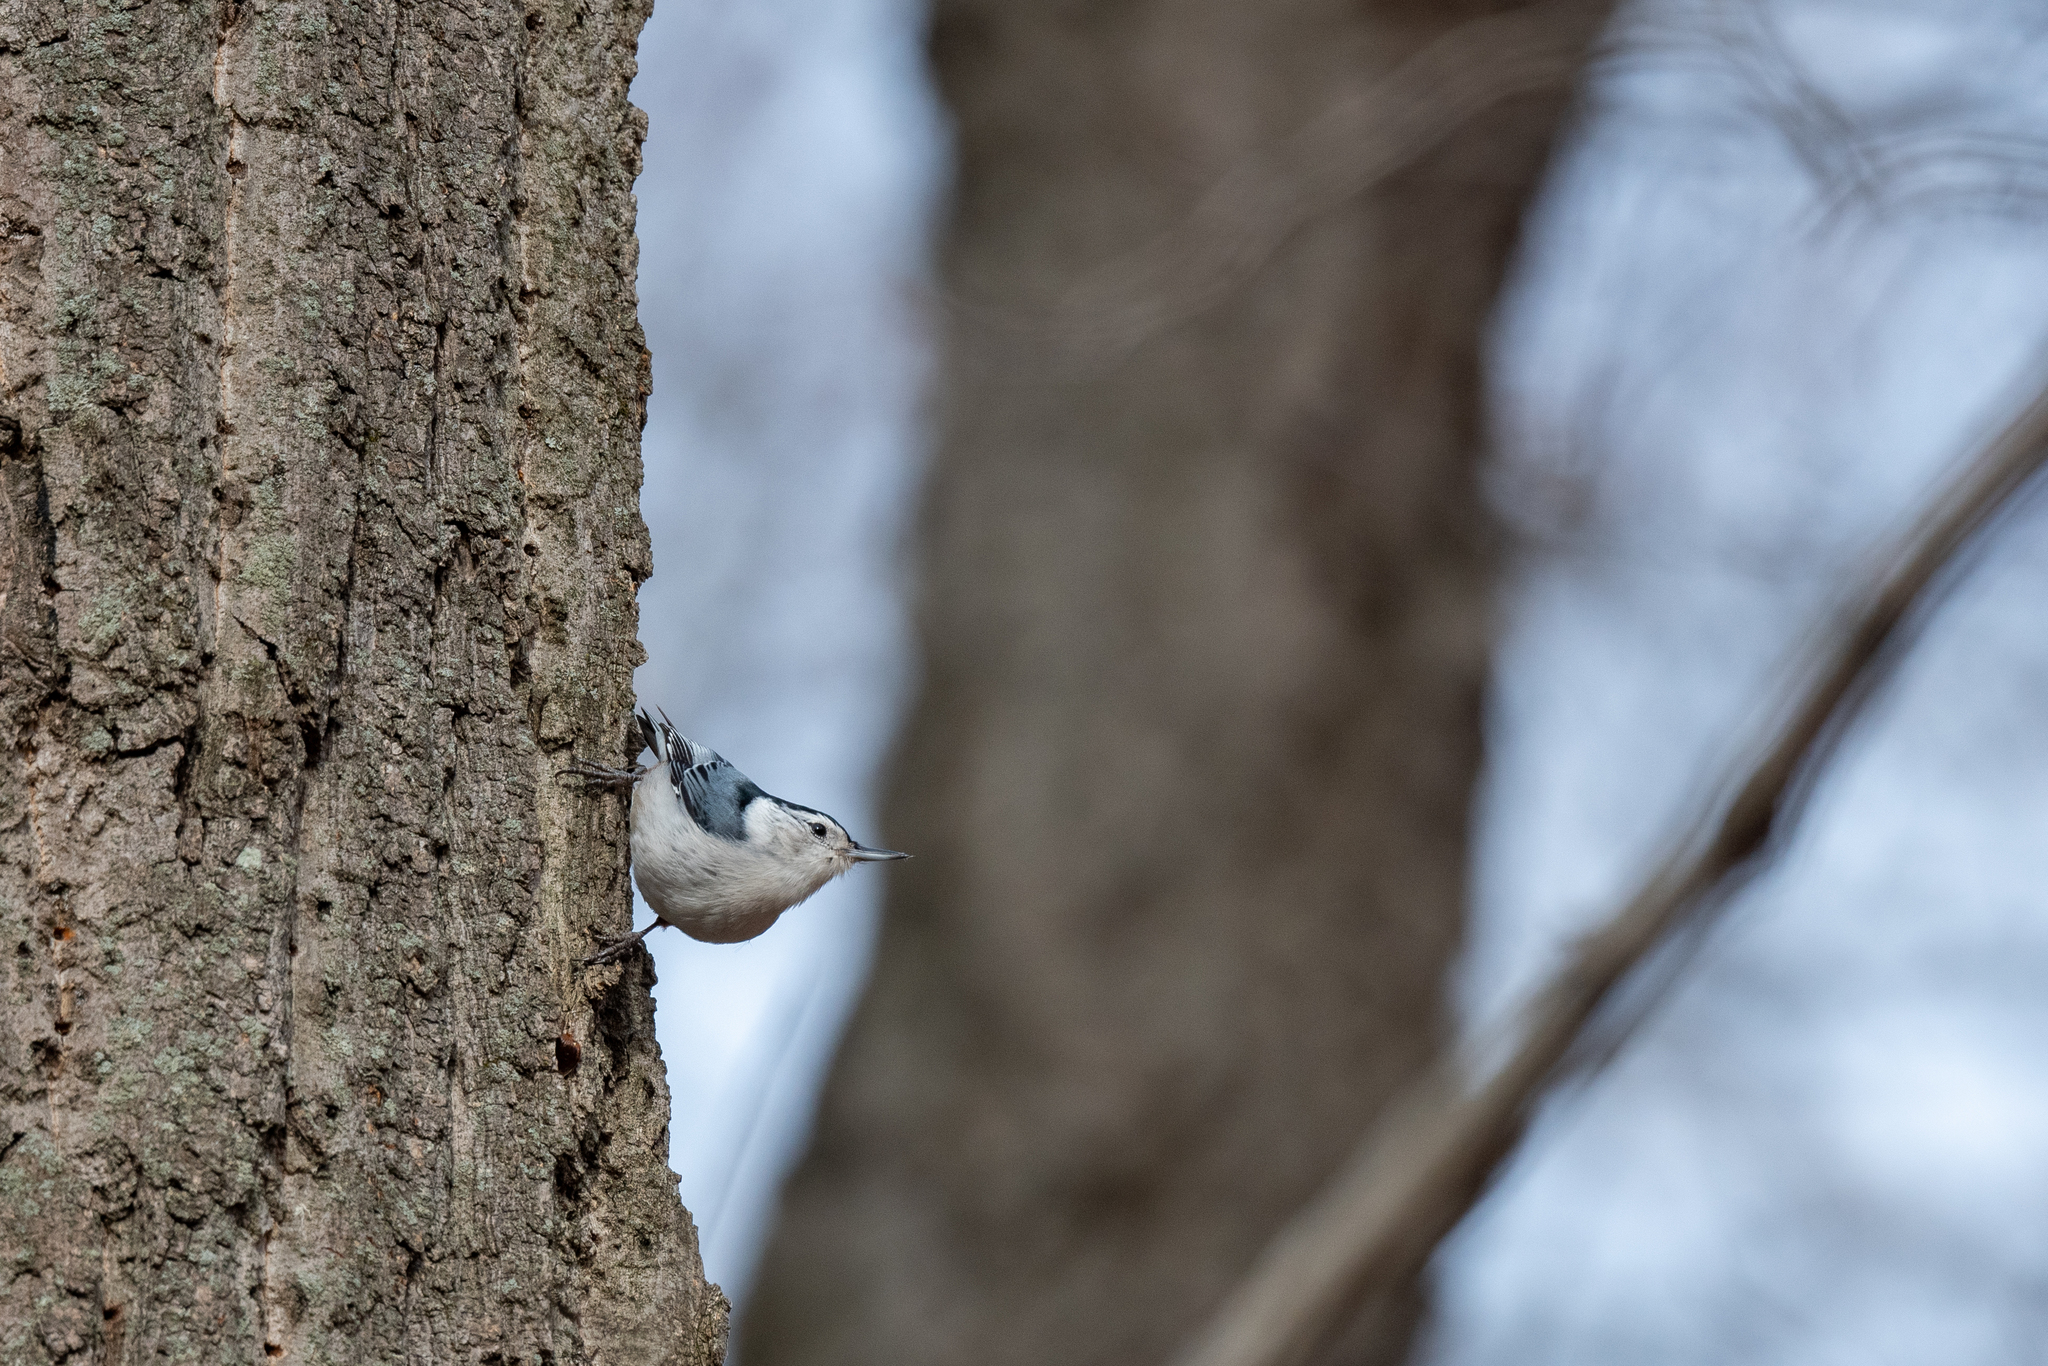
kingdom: Animalia
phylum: Chordata
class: Aves
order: Passeriformes
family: Sittidae
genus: Sitta
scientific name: Sitta carolinensis
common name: White-breasted nuthatch
